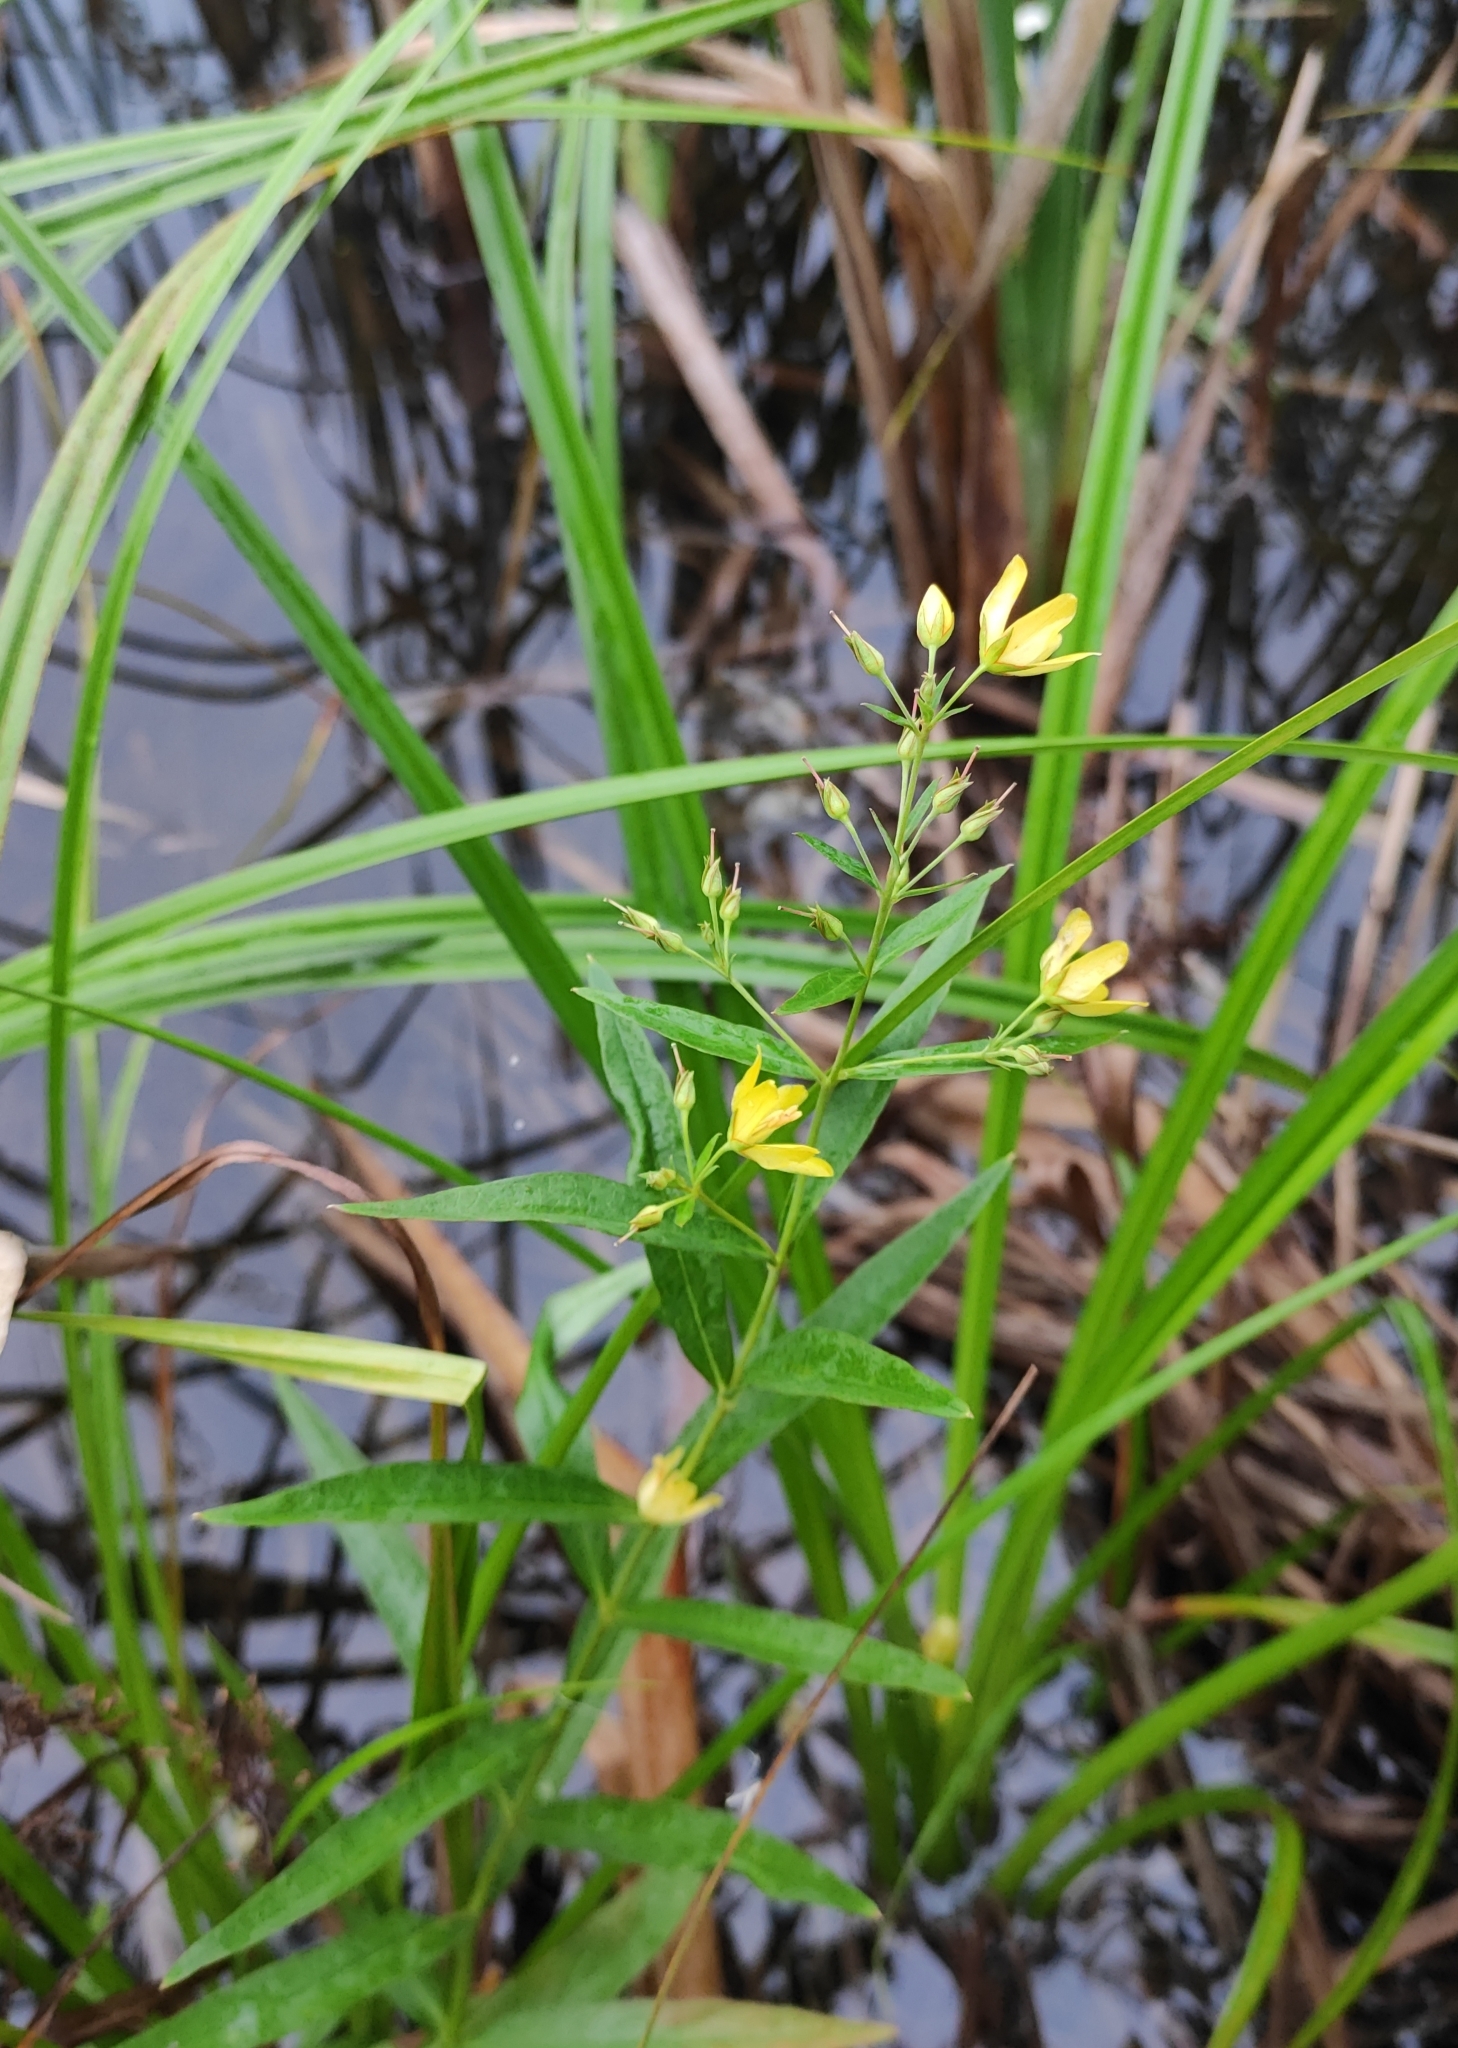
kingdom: Plantae
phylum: Tracheophyta
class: Magnoliopsida
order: Ericales
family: Primulaceae
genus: Lysimachia
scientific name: Lysimachia davurica
